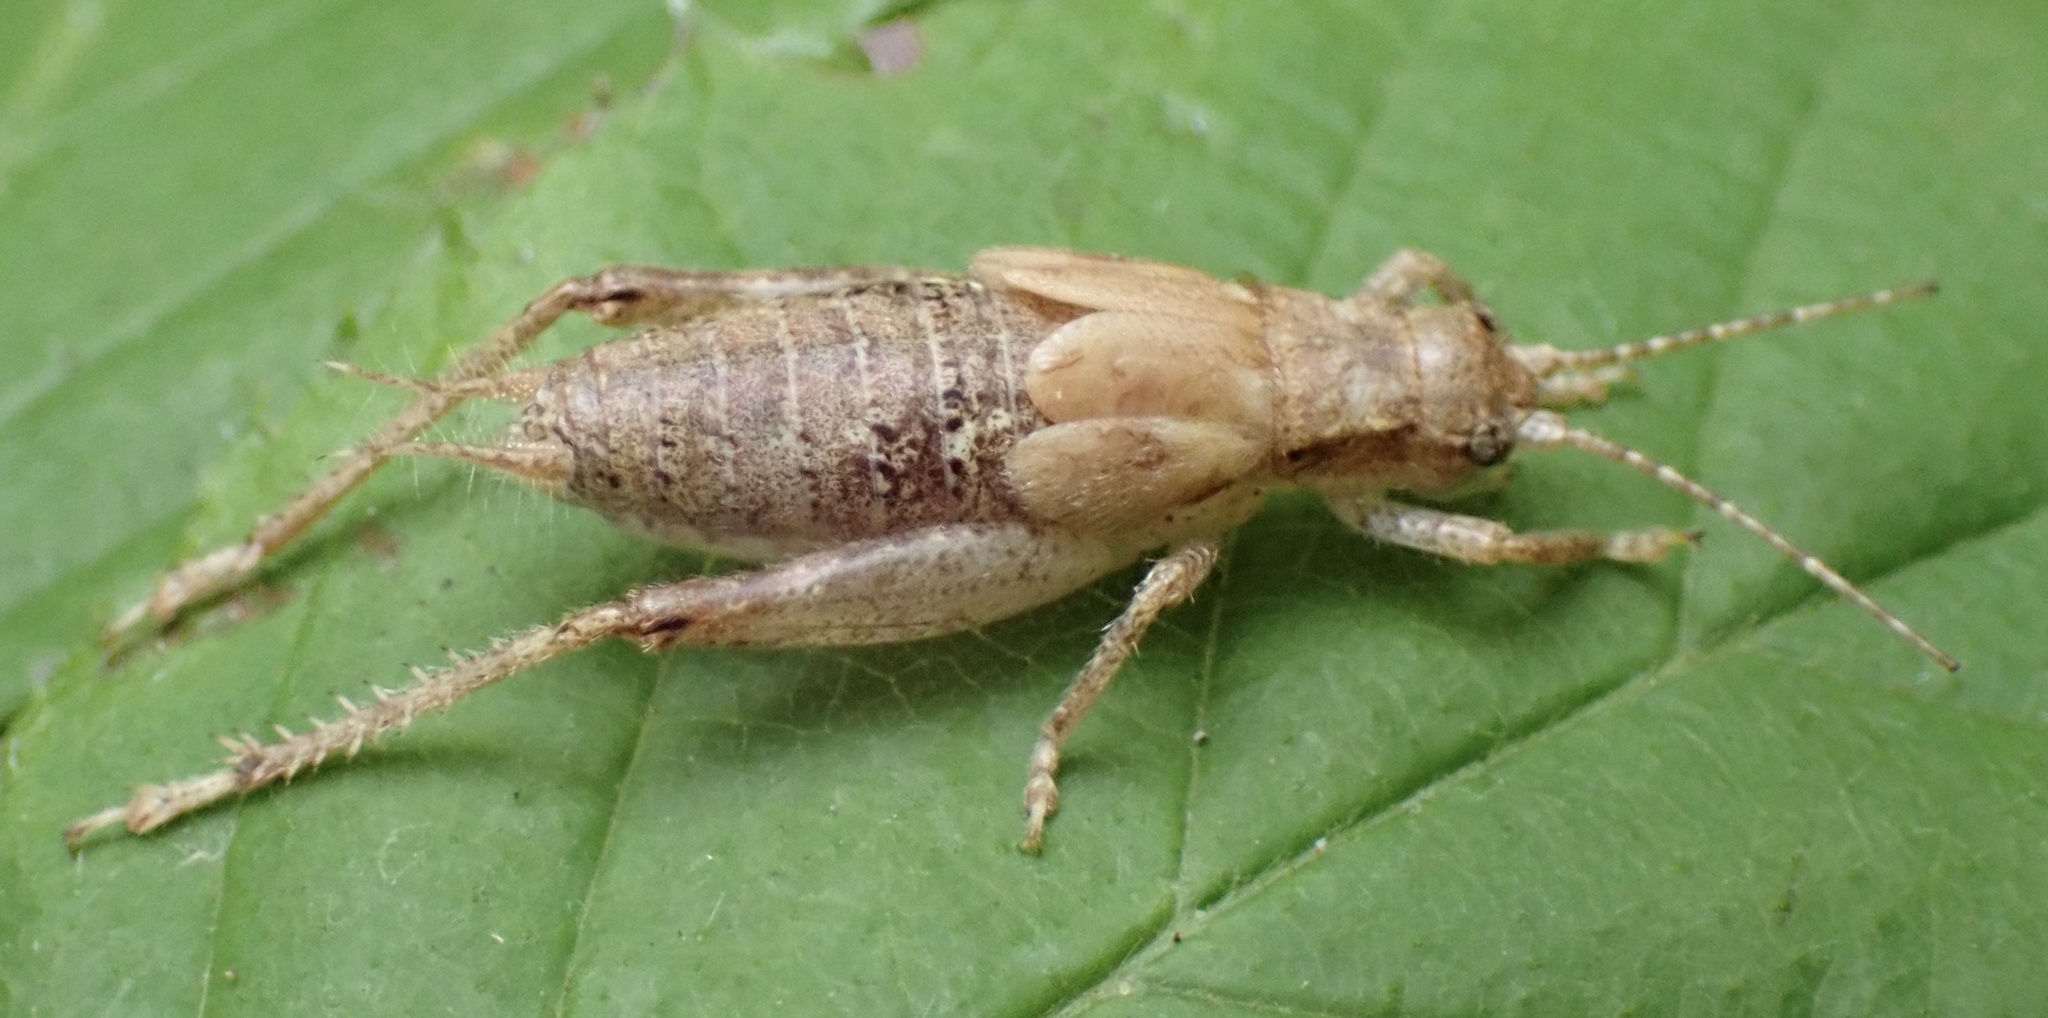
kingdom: Animalia
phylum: Arthropoda
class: Insecta
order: Orthoptera
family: Gryllidae
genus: Hapithus
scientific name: Hapithus saltator
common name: Jumping bush cricket
